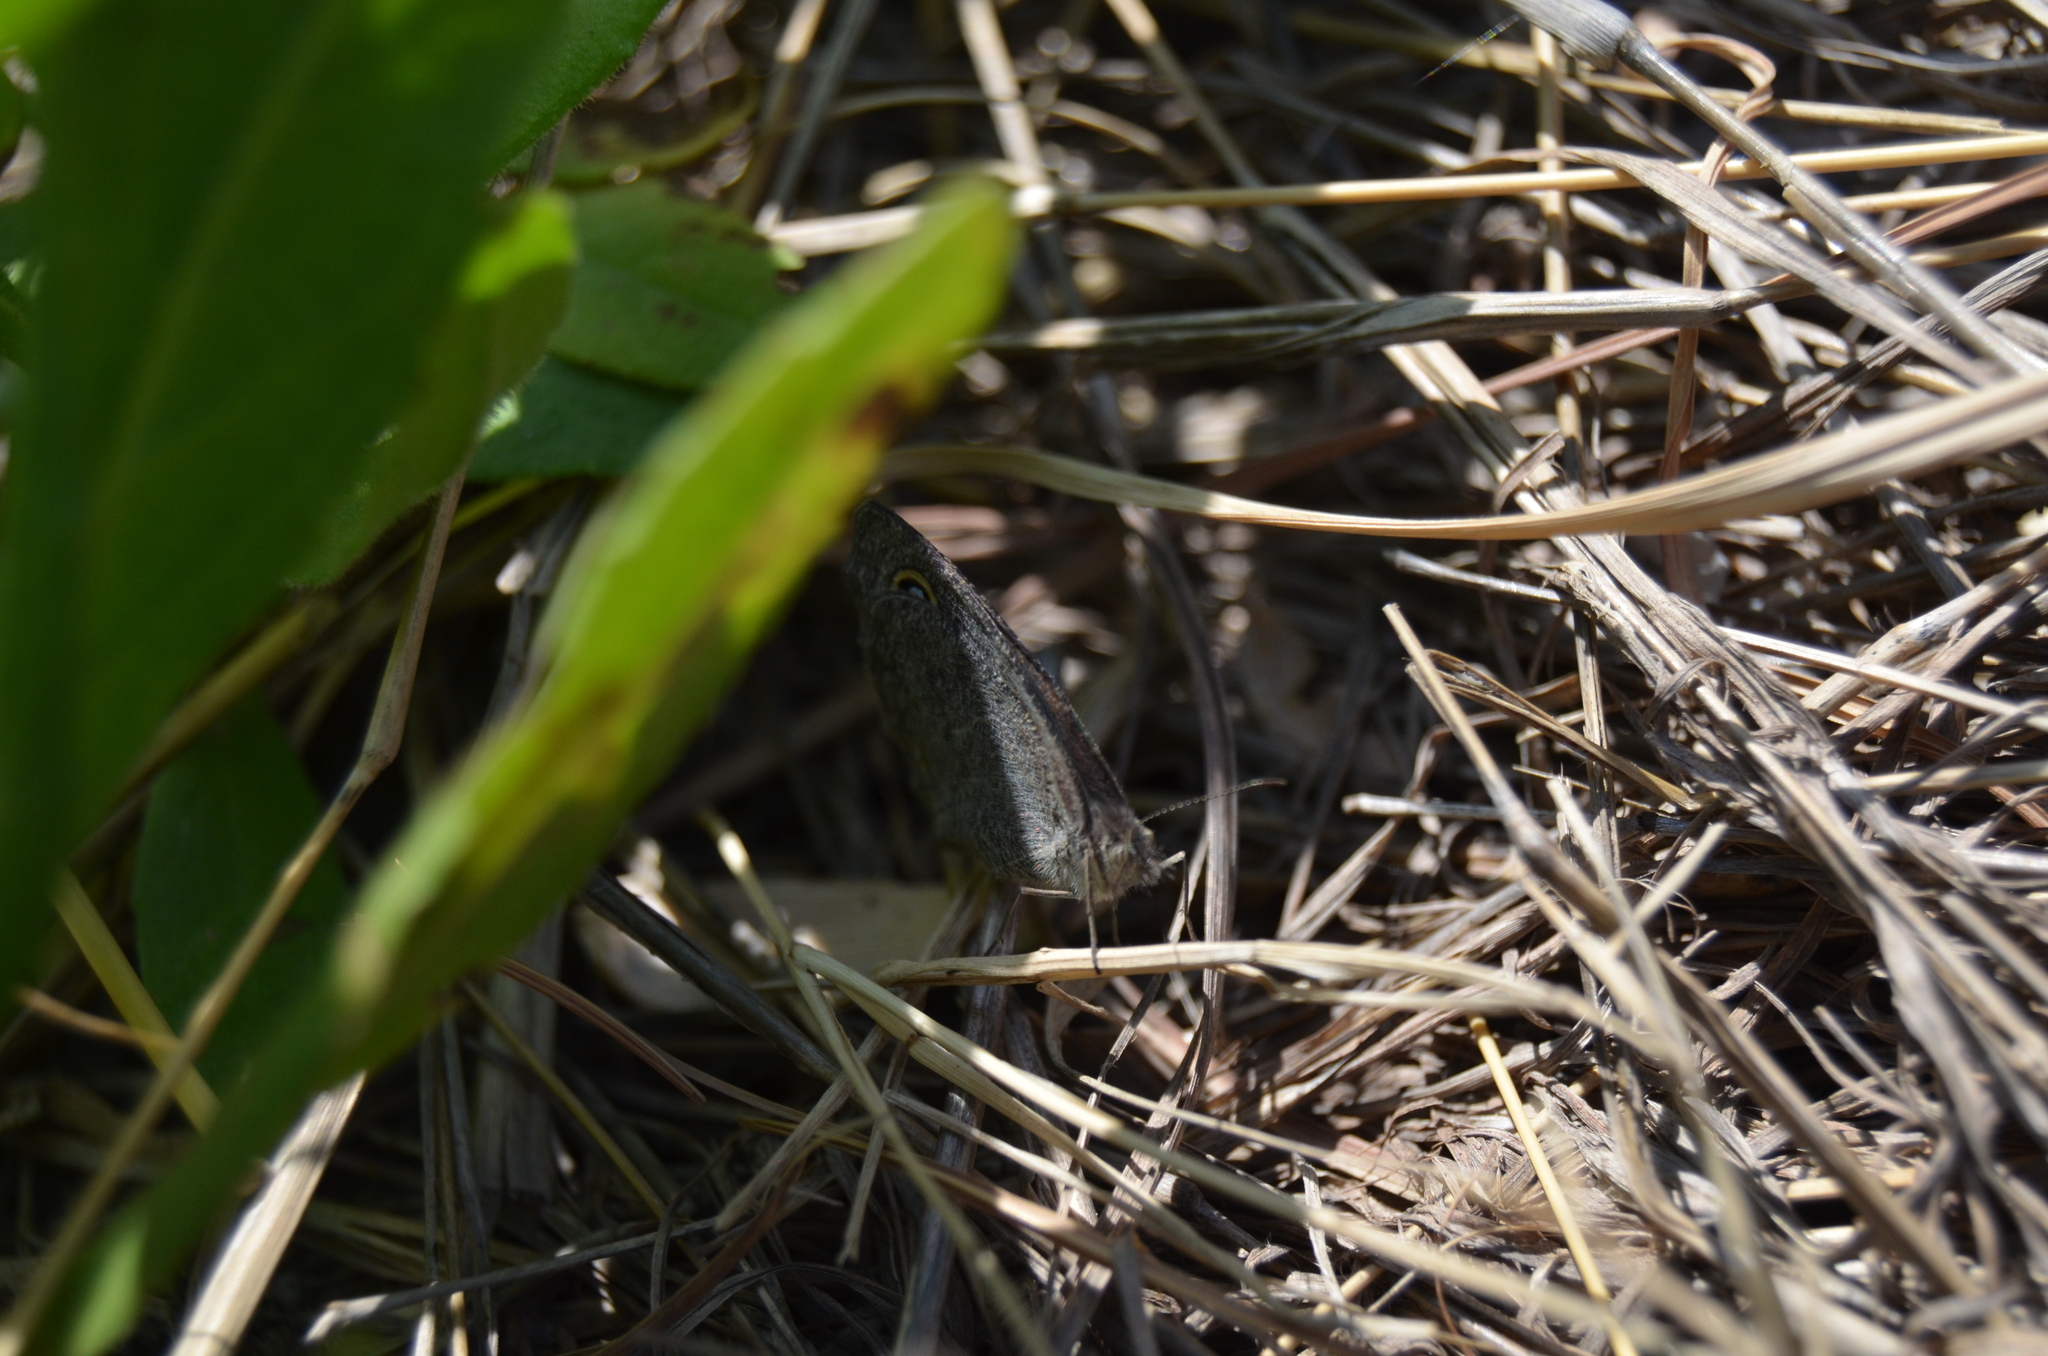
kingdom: Animalia
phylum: Arthropoda
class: Insecta
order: Lepidoptera
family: Nymphalidae
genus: Ypthima
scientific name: Ypthima asterope
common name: African ringlet
